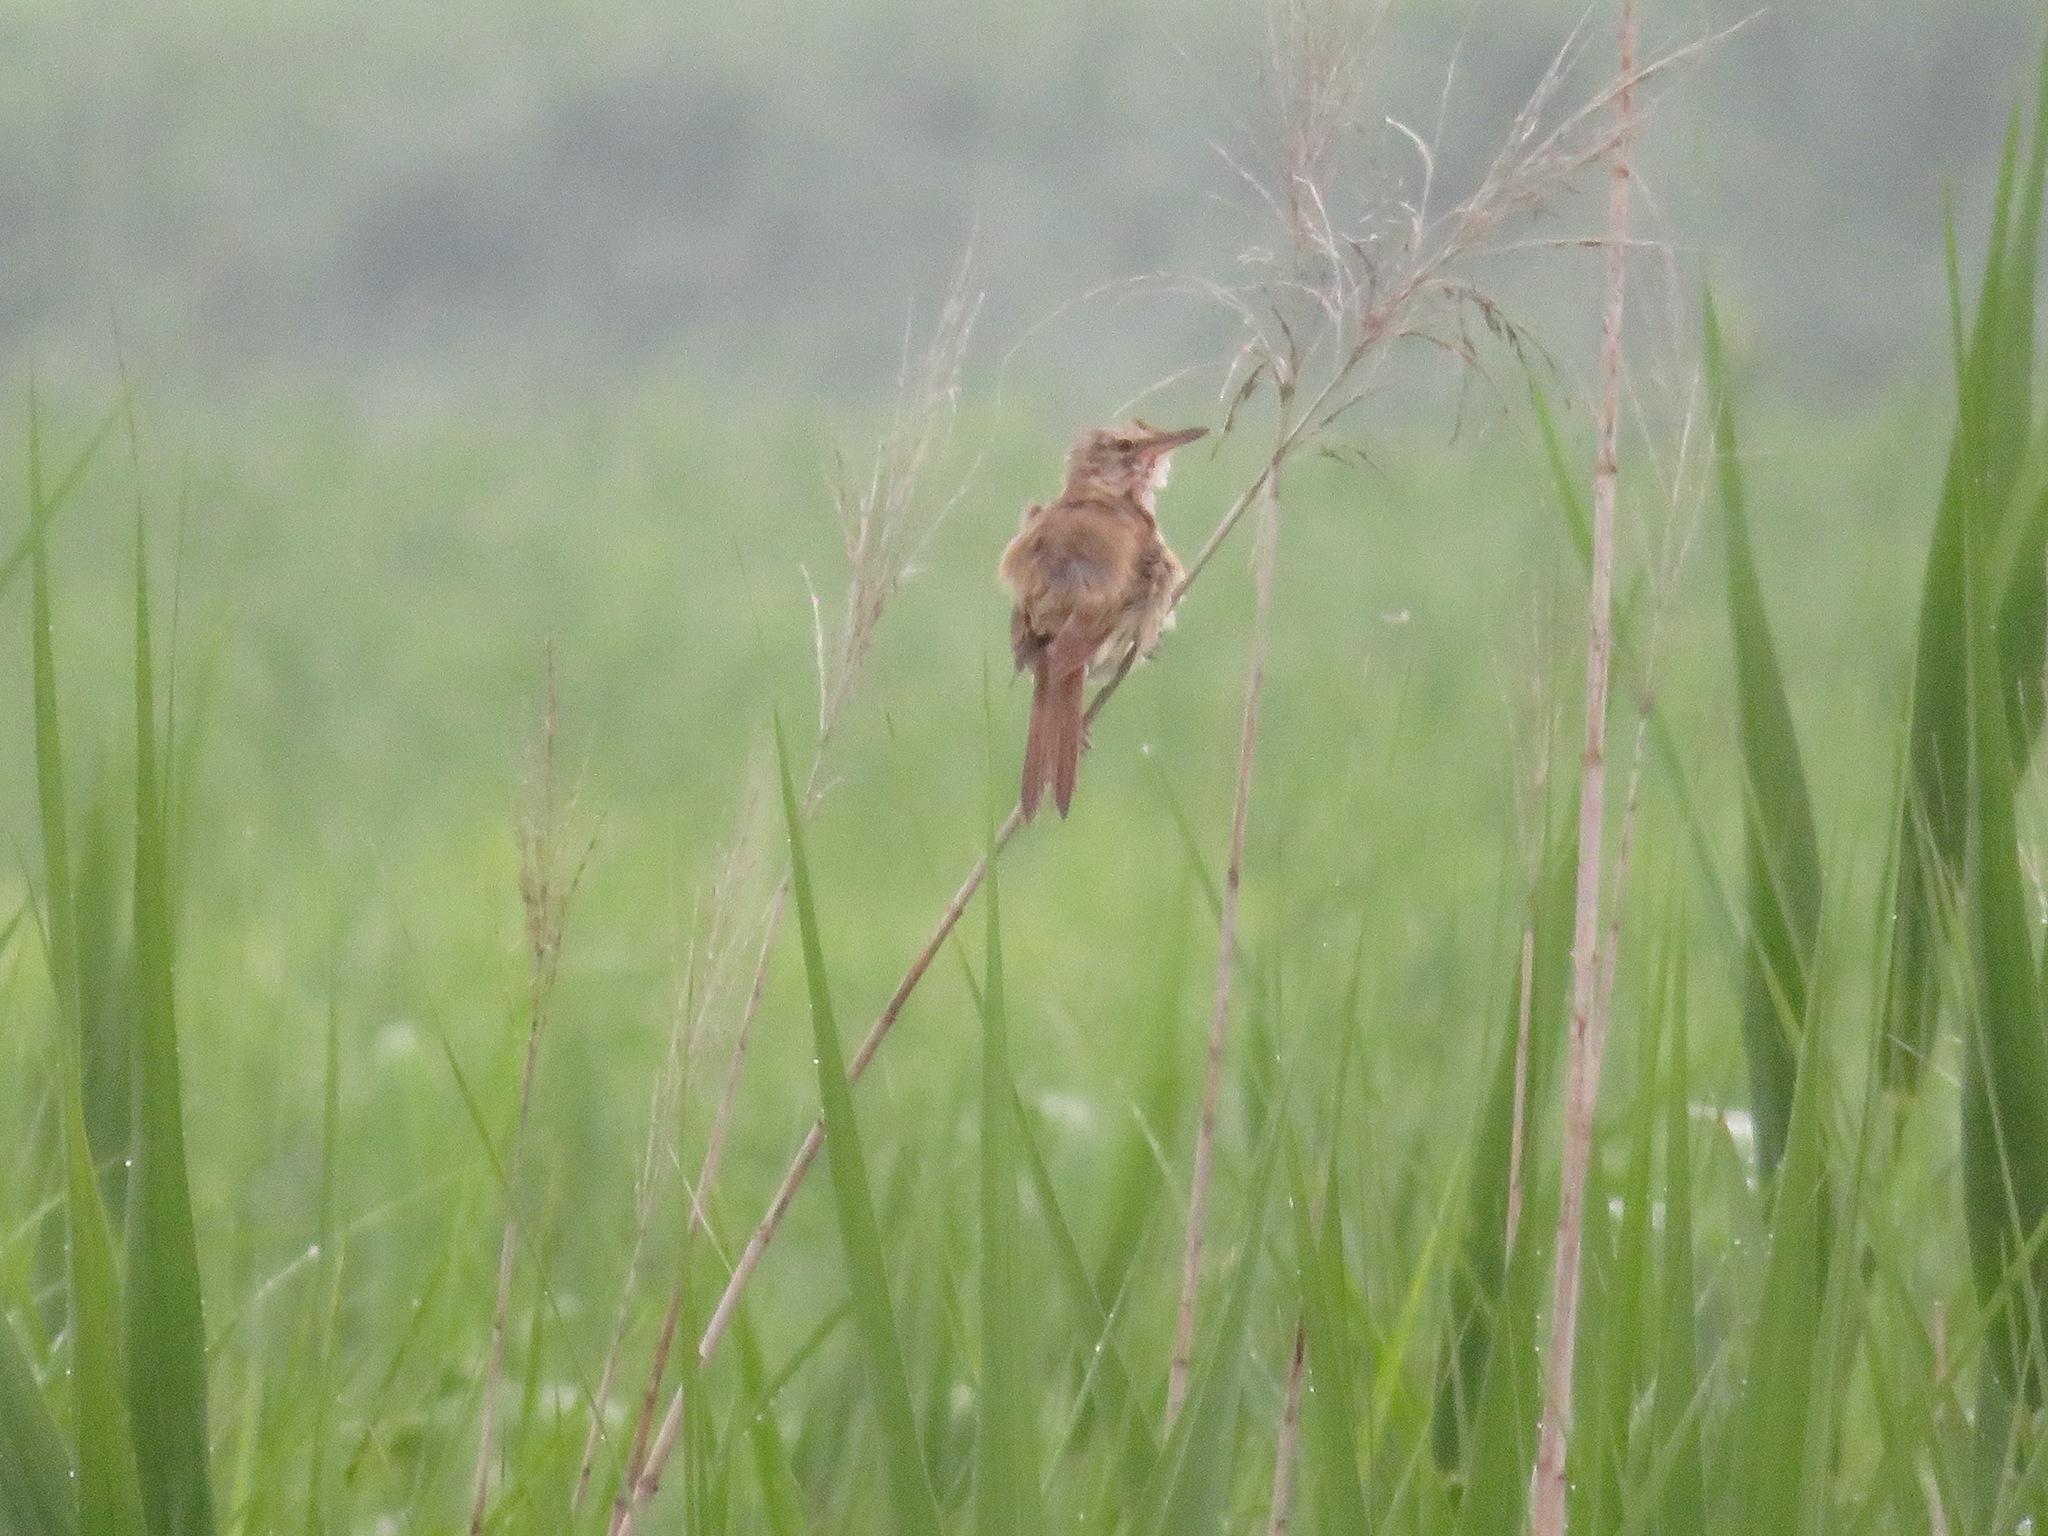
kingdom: Animalia
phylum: Chordata
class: Aves
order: Passeriformes
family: Acrocephalidae
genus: Acrocephalus
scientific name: Acrocephalus orientalis
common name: Oriental reed warbler
